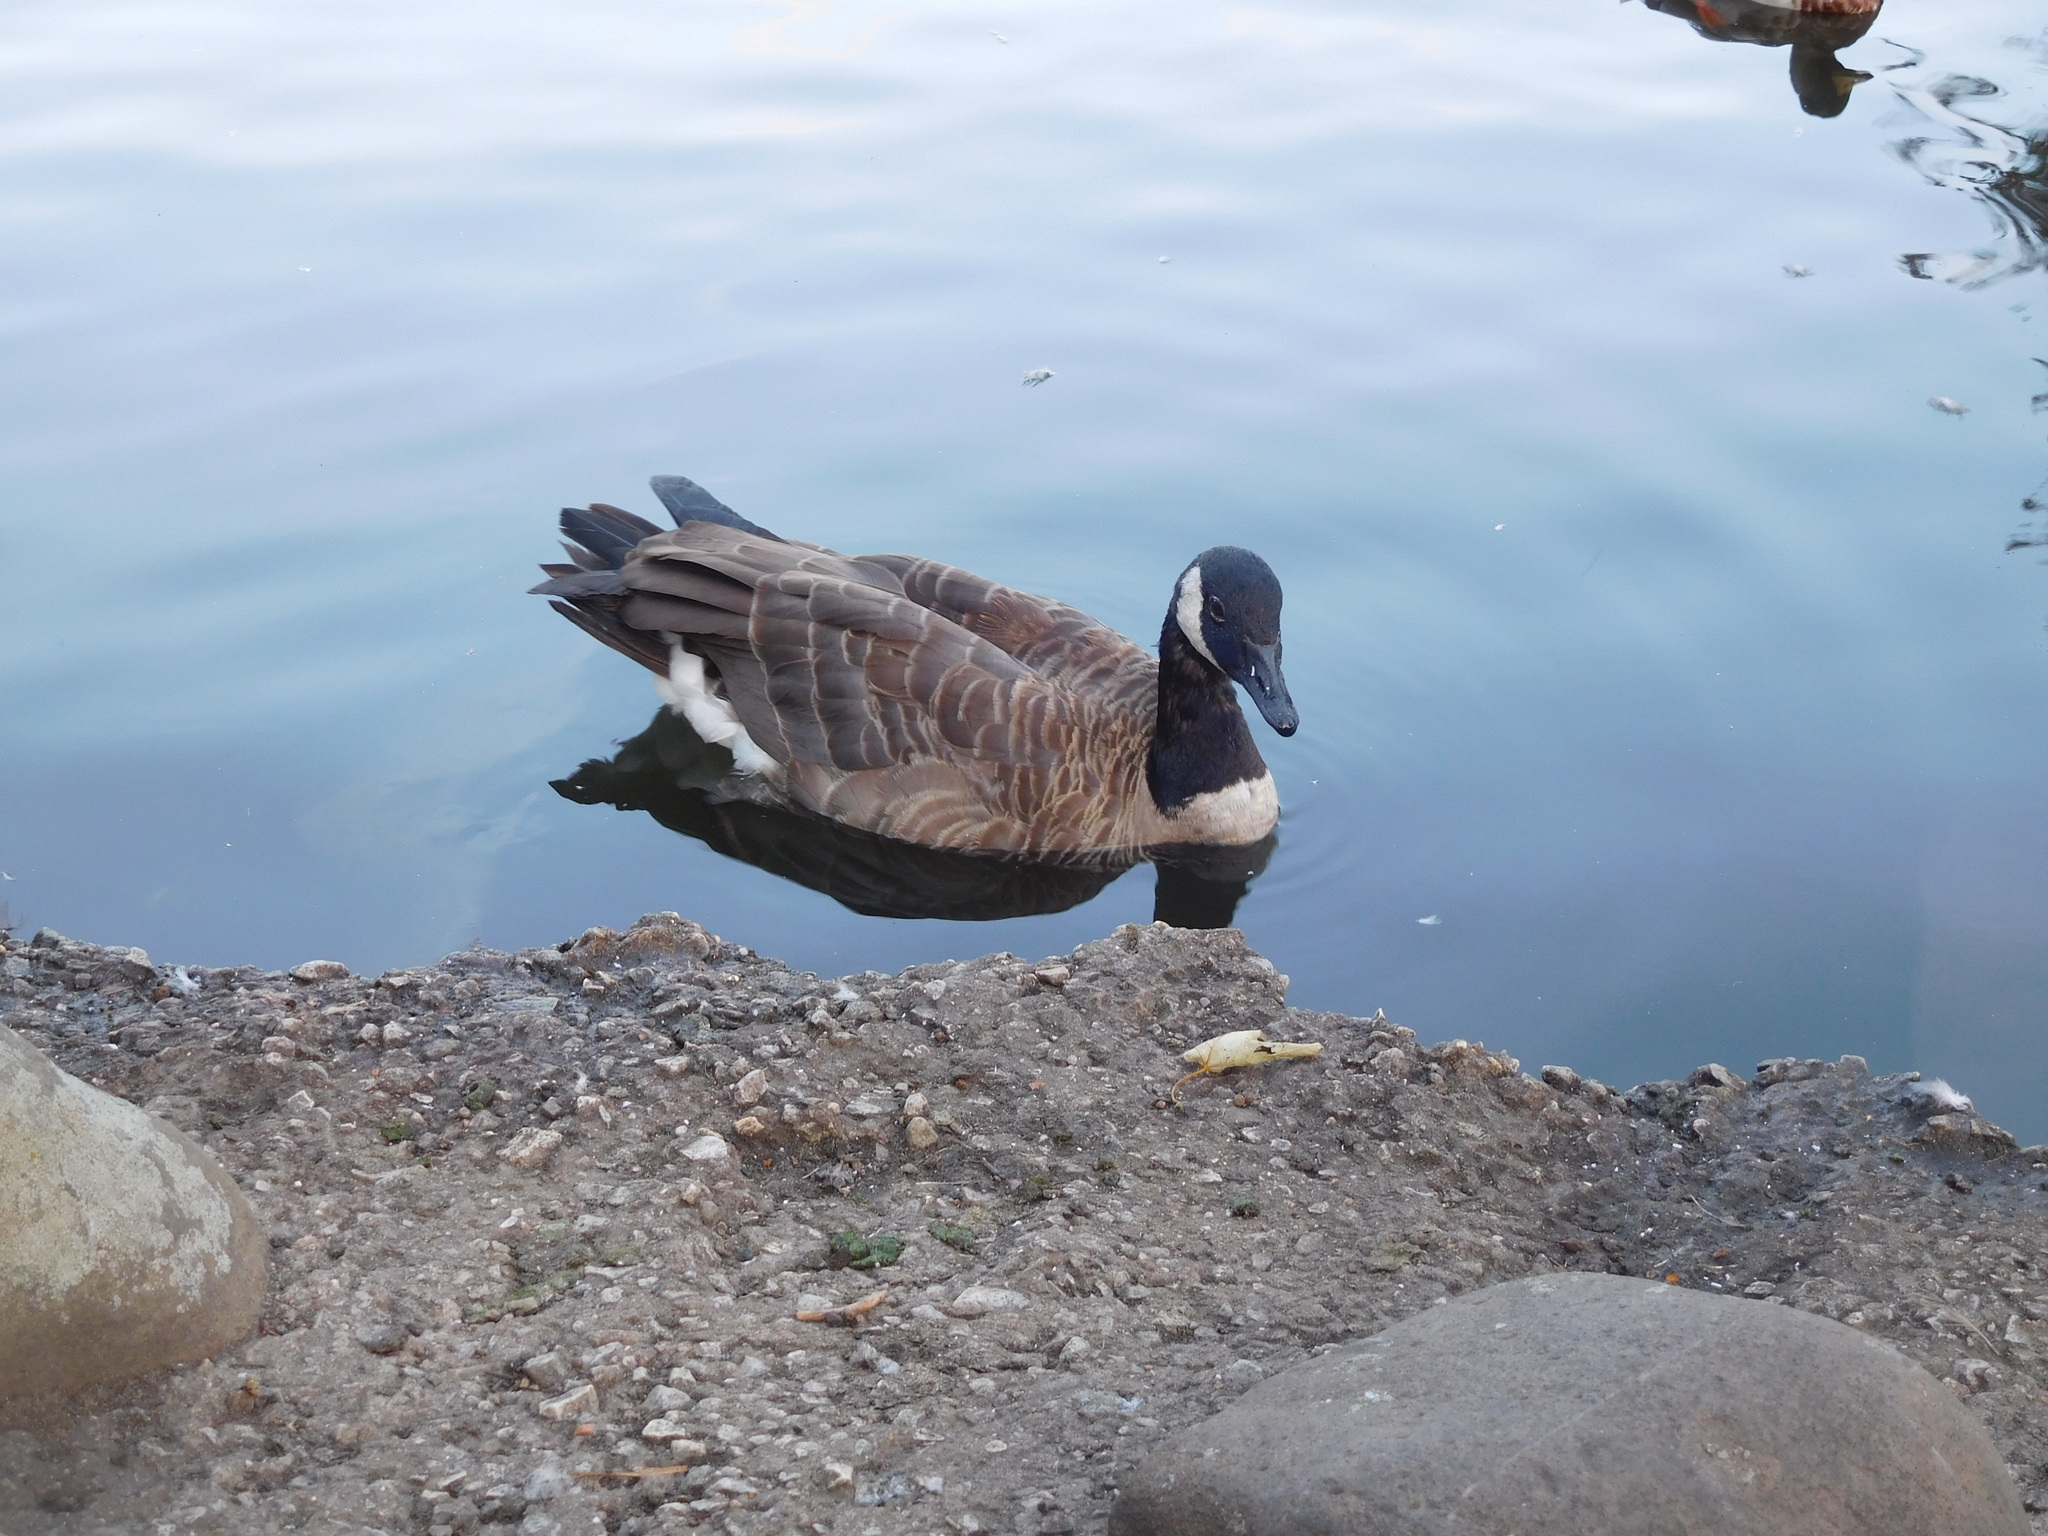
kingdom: Animalia
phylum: Chordata
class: Aves
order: Anseriformes
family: Anatidae
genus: Branta
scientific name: Branta canadensis
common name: Canada goose
